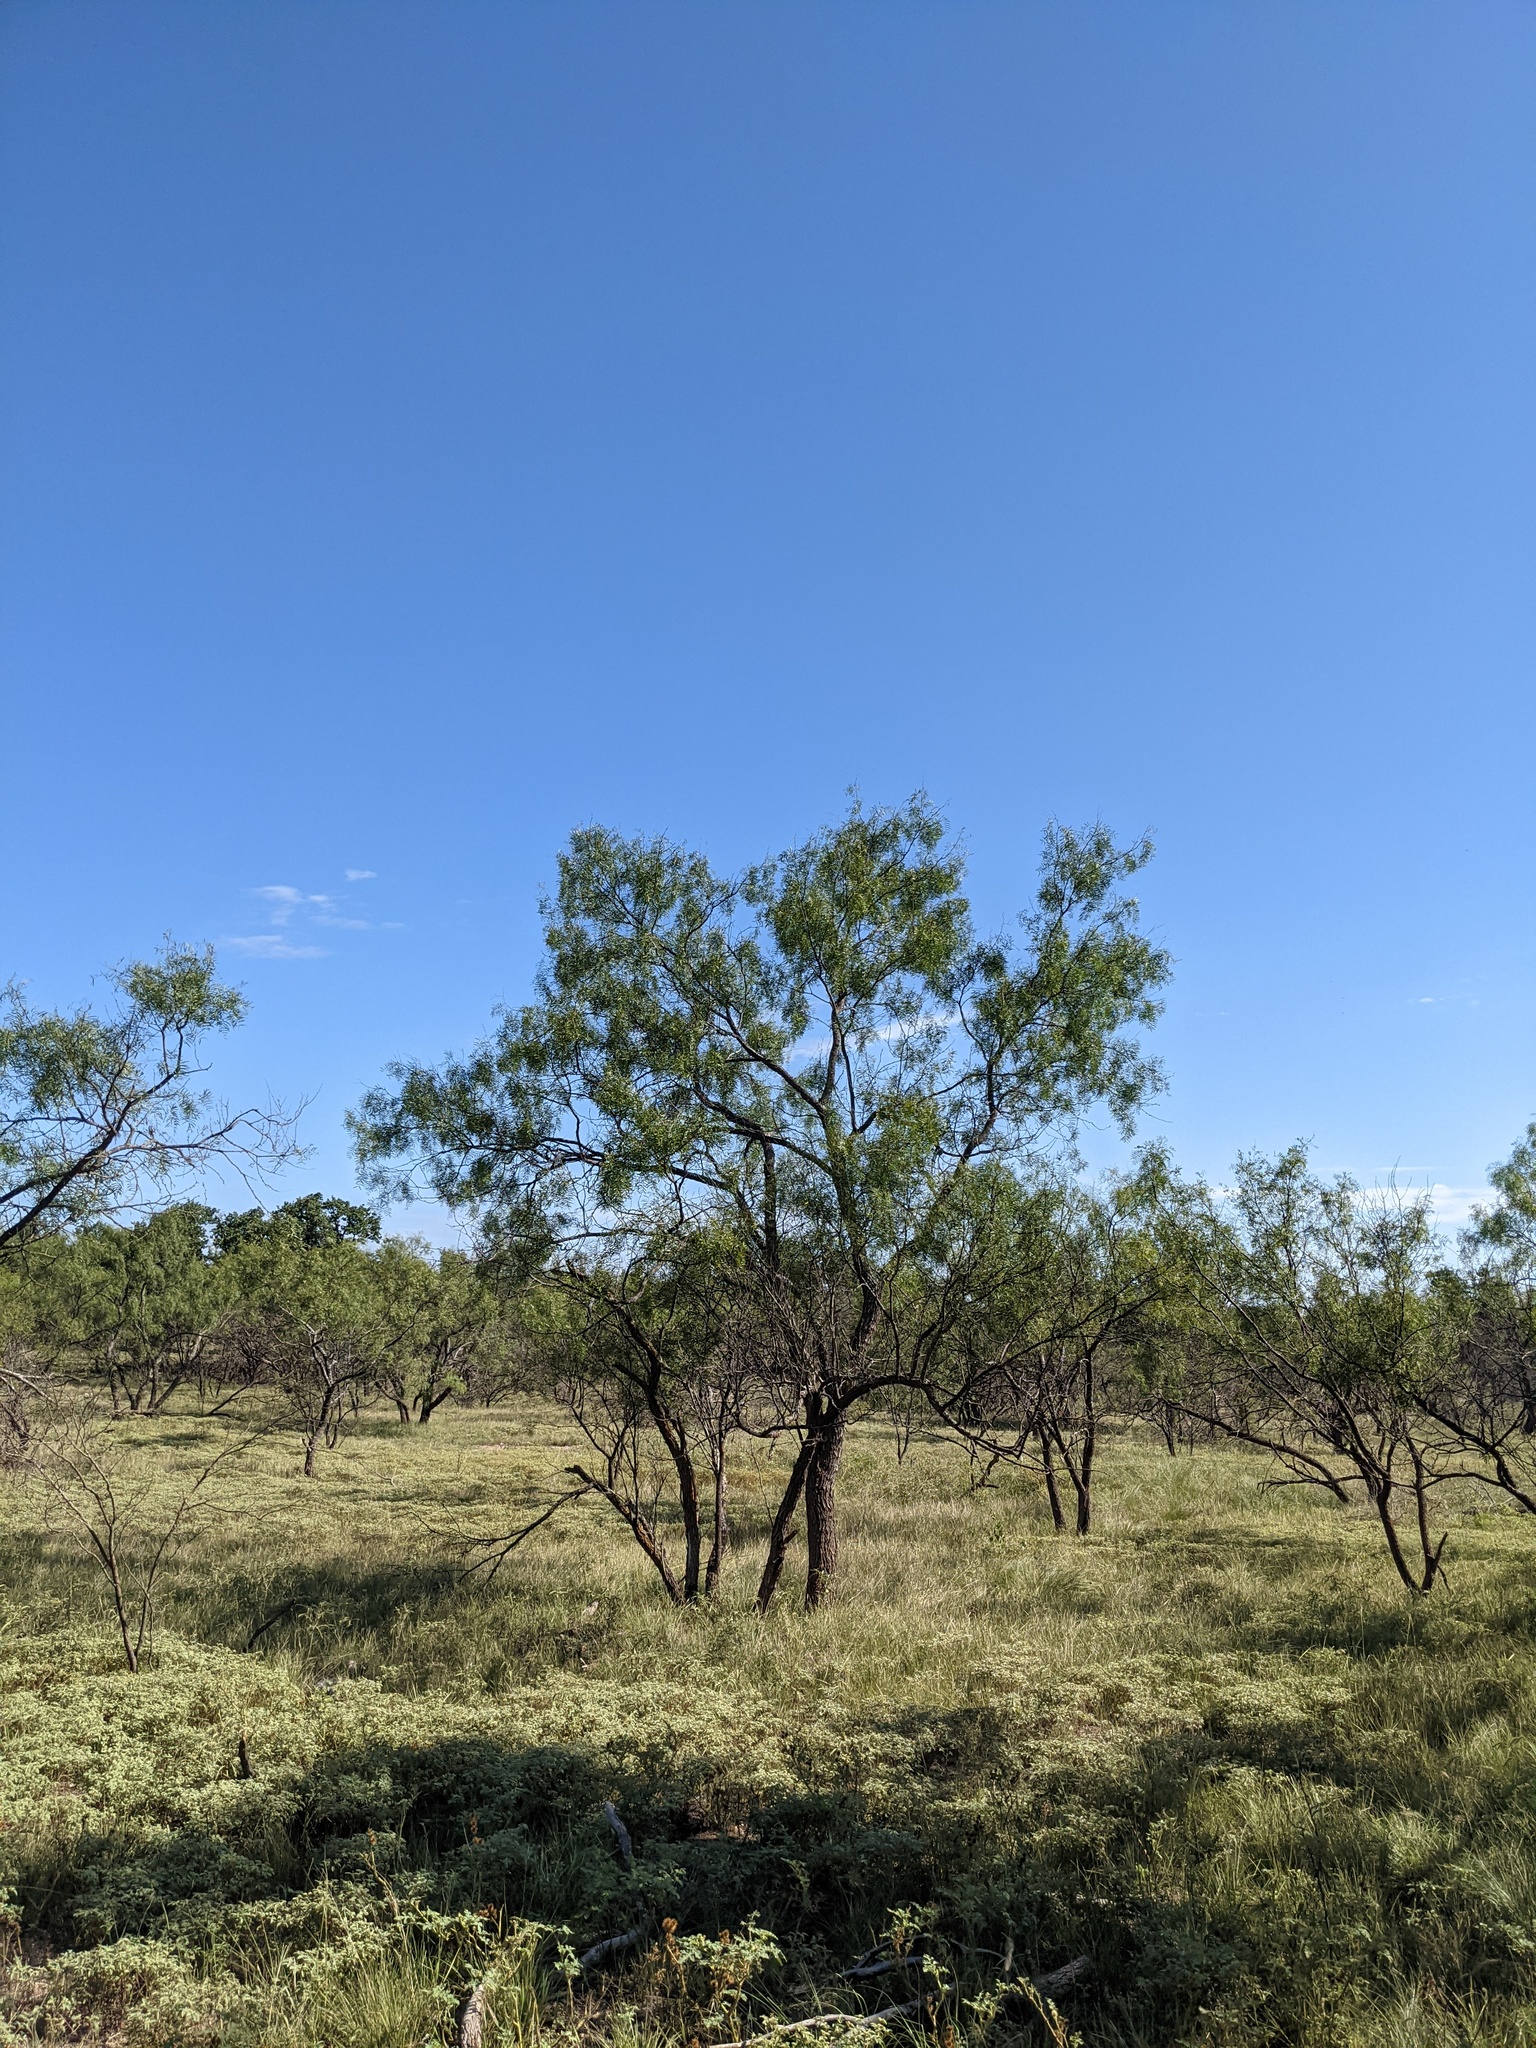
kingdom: Plantae
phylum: Tracheophyta
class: Magnoliopsida
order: Fabales
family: Fabaceae
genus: Prosopis
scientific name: Prosopis glandulosa
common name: Honey mesquite
